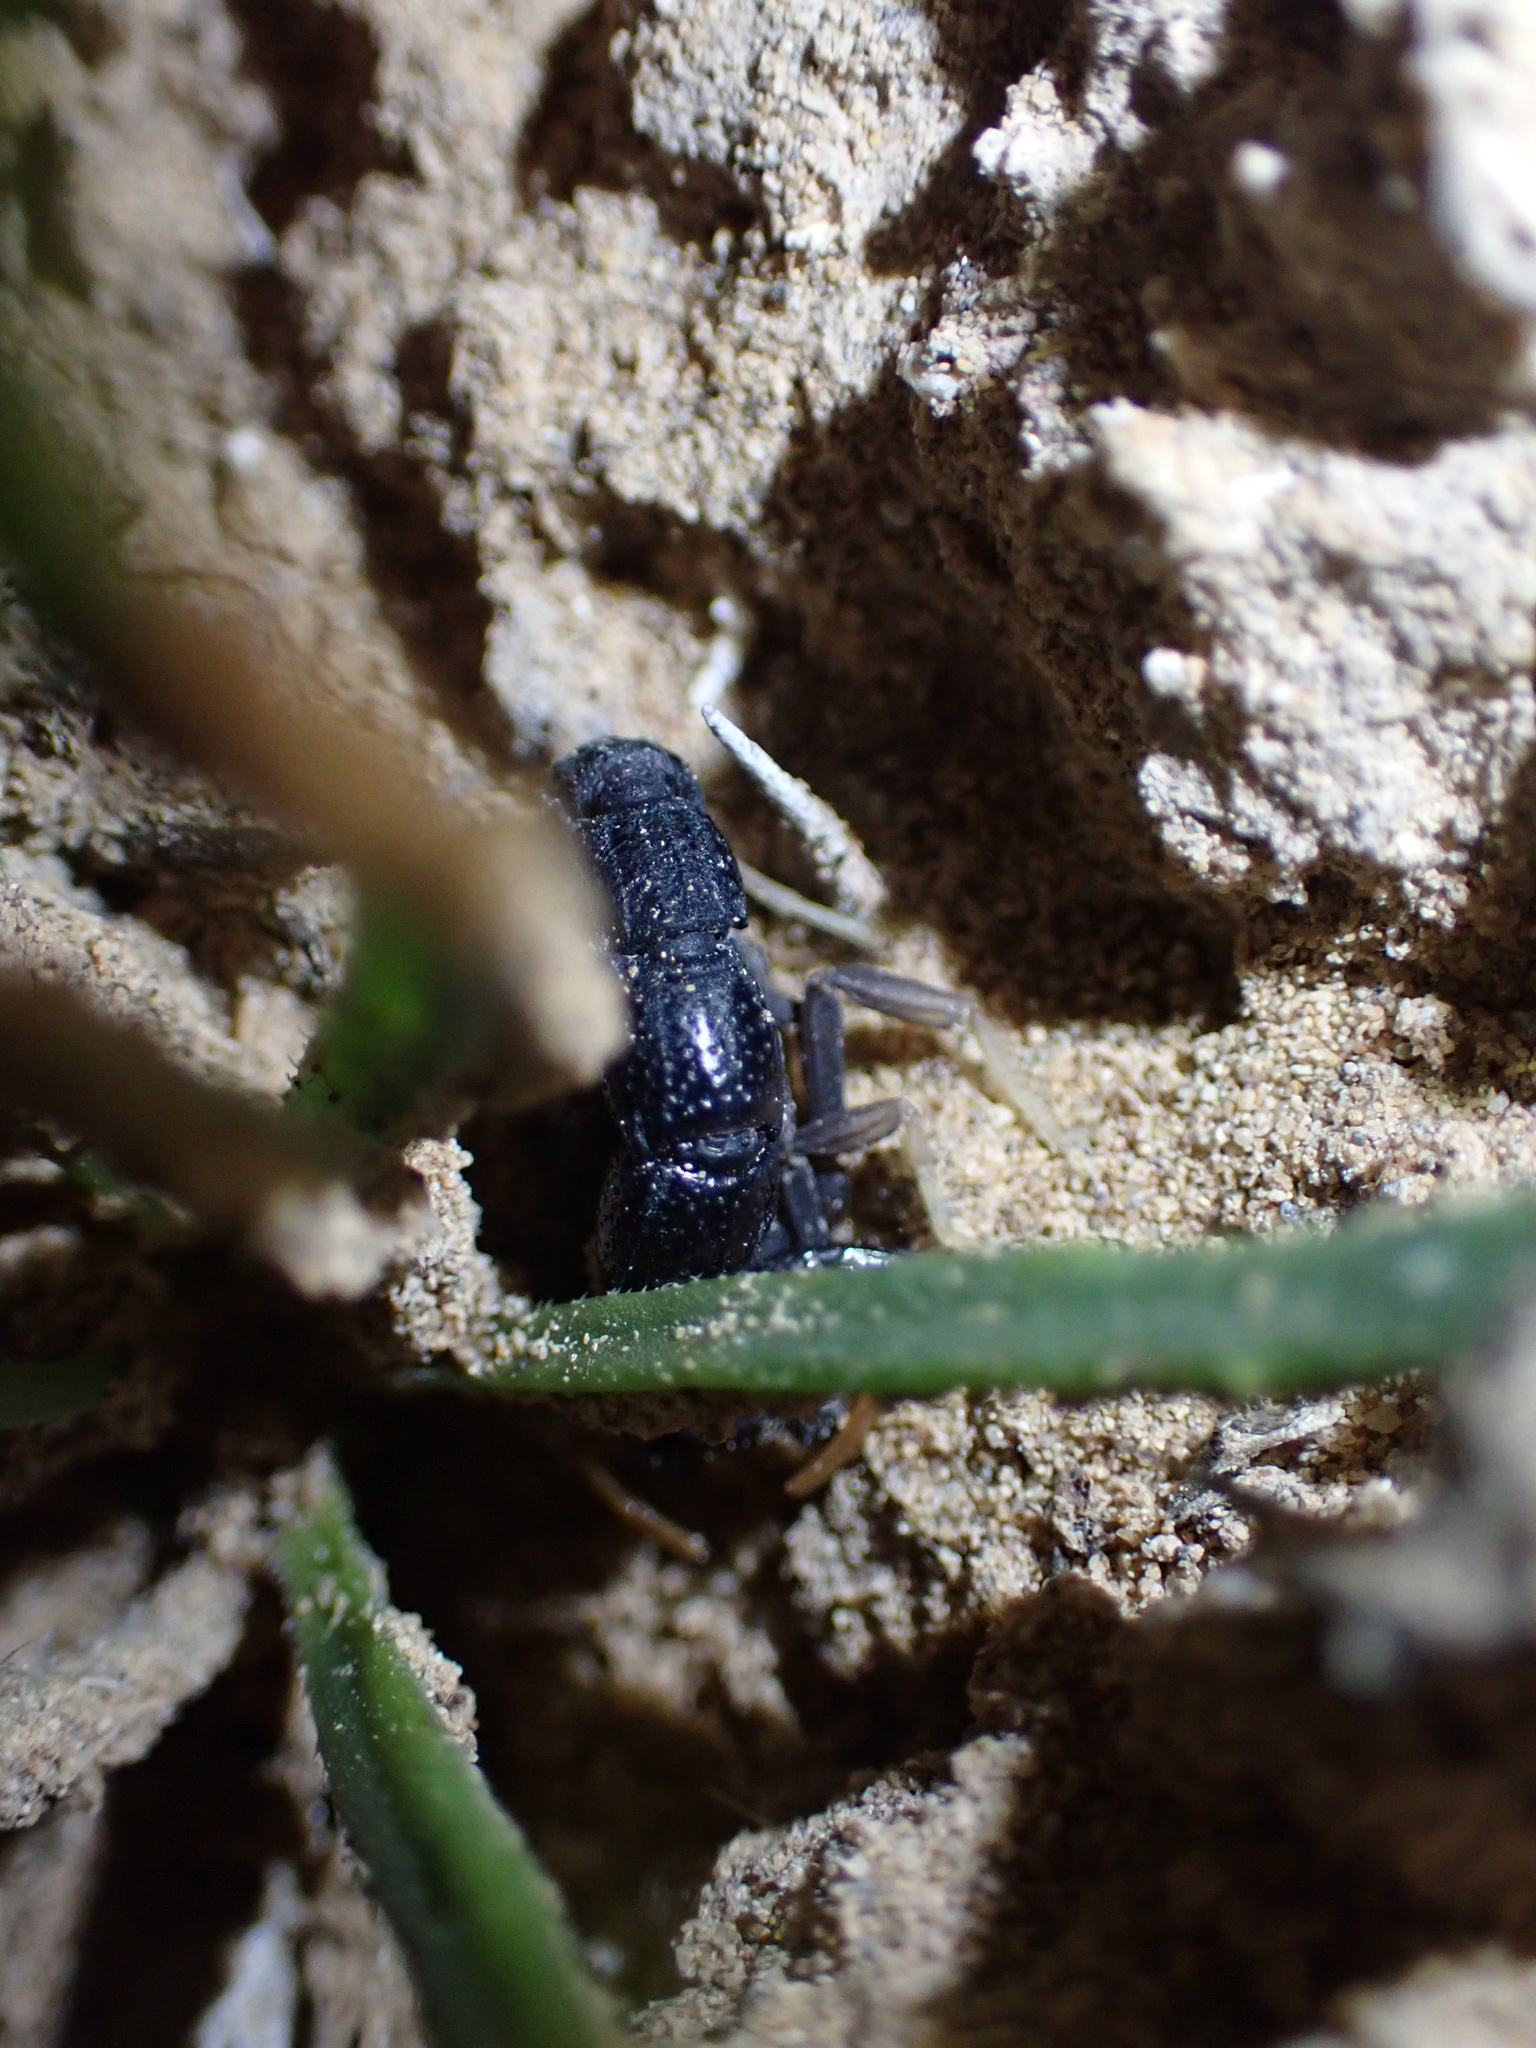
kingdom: Animalia
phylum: Arthropoda
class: Arachnida
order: Scorpiones
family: Buthidae
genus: Orthochirus
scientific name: Orthochirus mesopotamicus
